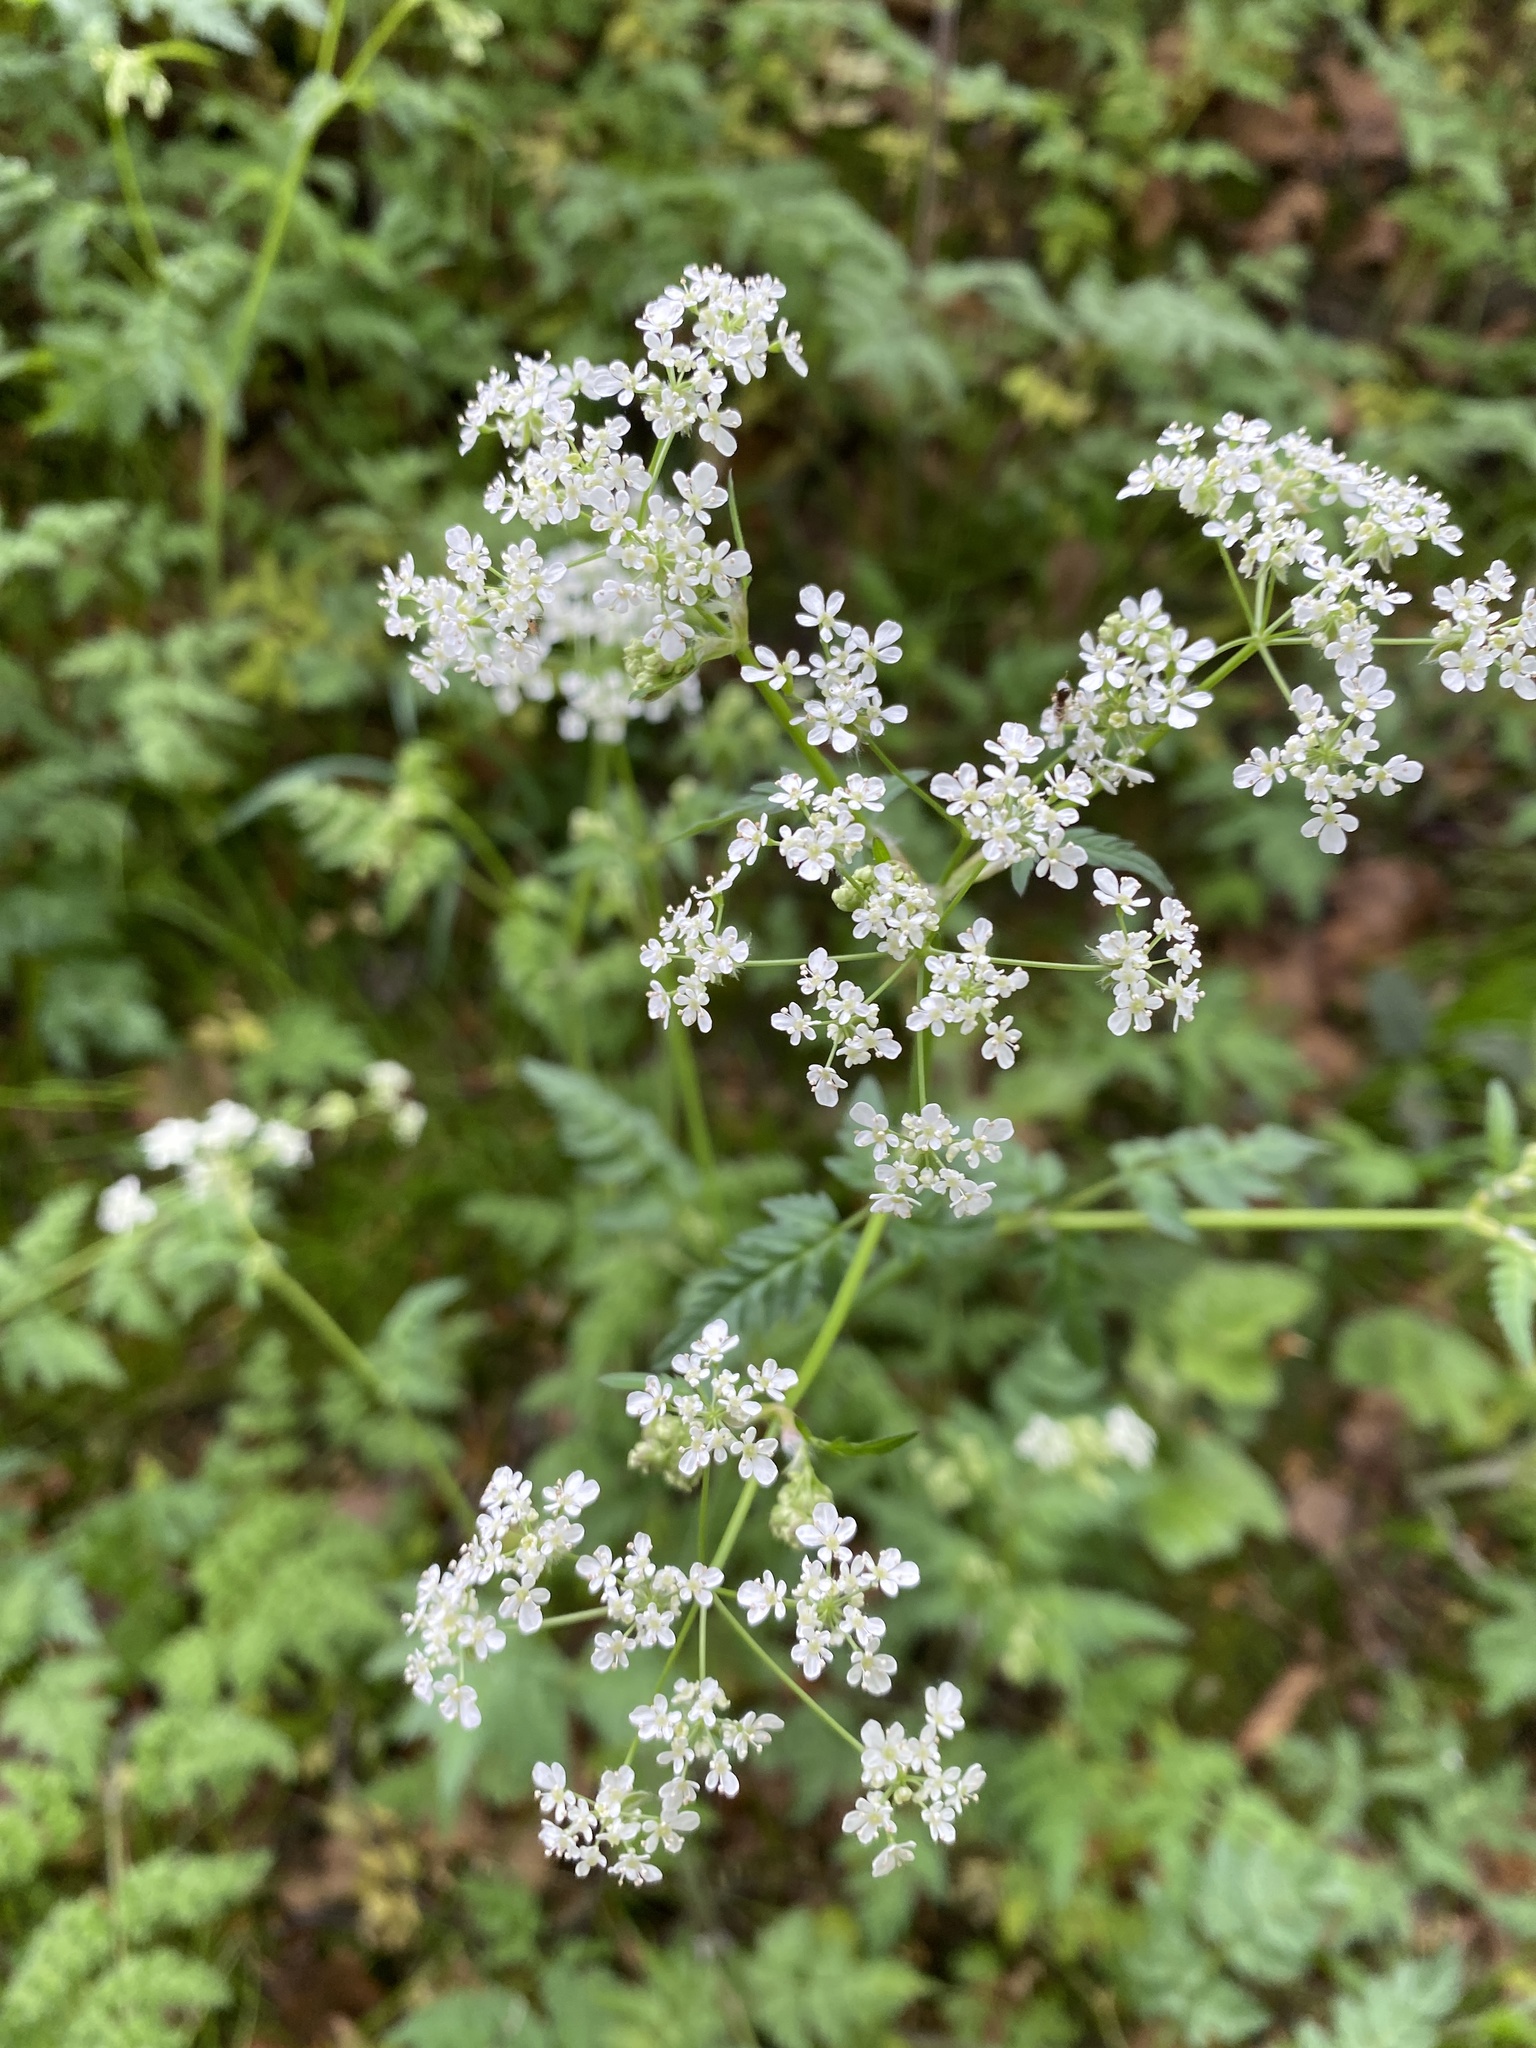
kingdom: Plantae
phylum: Tracheophyta
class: Magnoliopsida
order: Apiales
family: Apiaceae
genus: Anthriscus
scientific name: Anthriscus sylvestris
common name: Cow parsley
